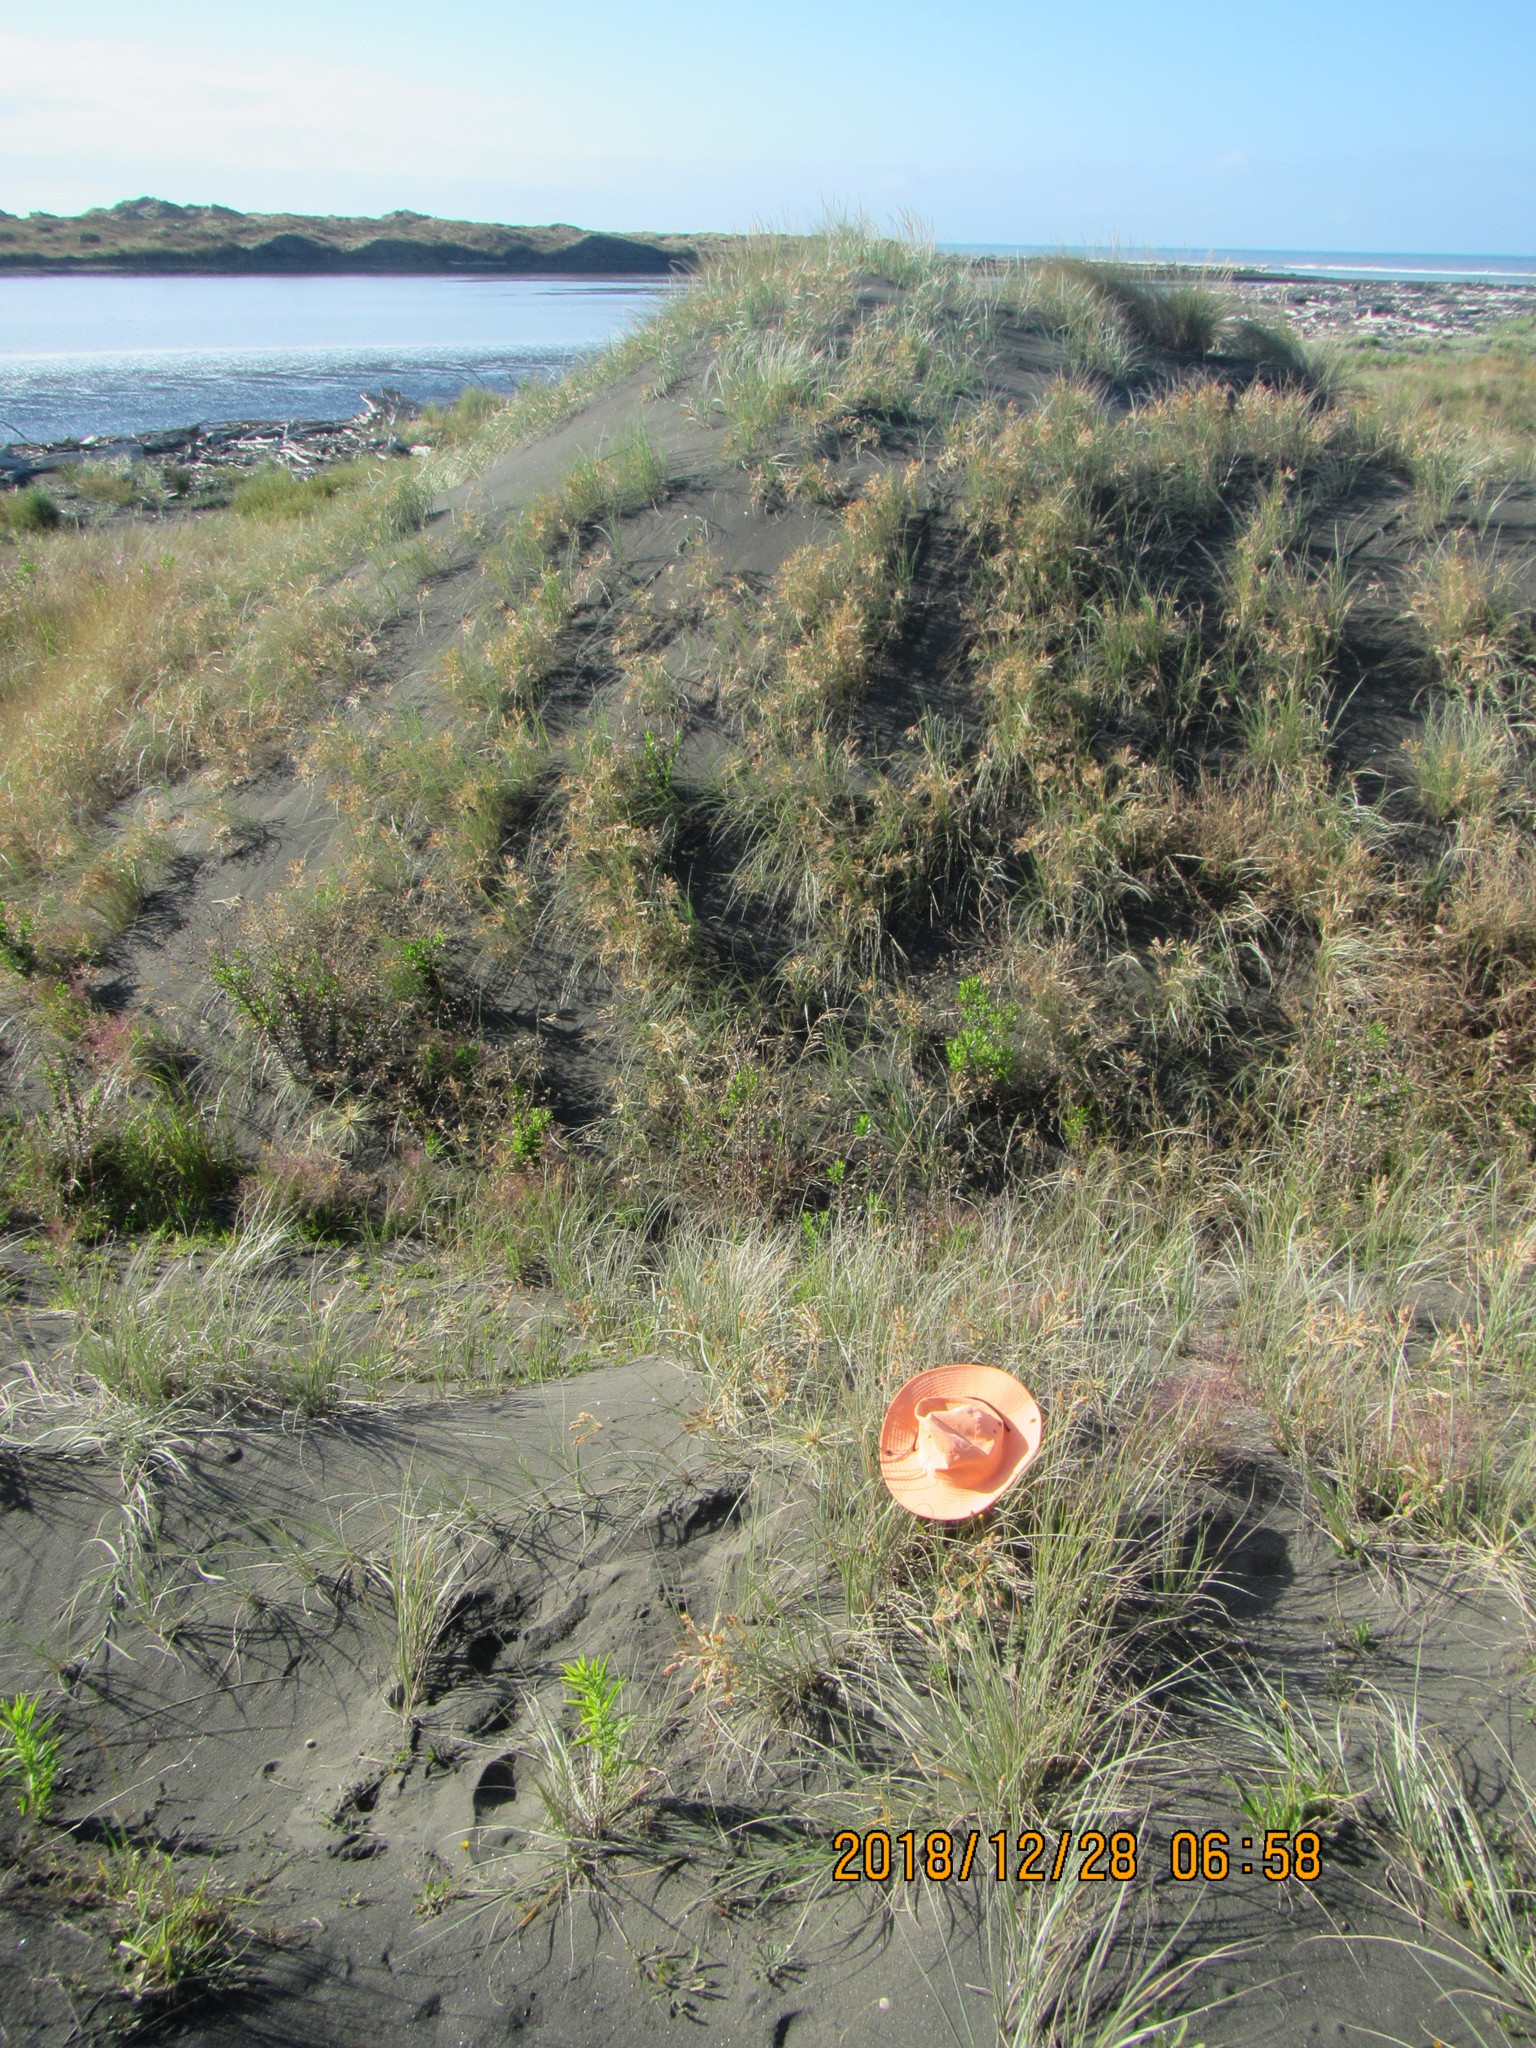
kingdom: Animalia
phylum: Arthropoda
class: Insecta
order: Hemiptera
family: Pentatomidae
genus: Nezara
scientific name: Nezara viridula
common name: Southern green stink bug
